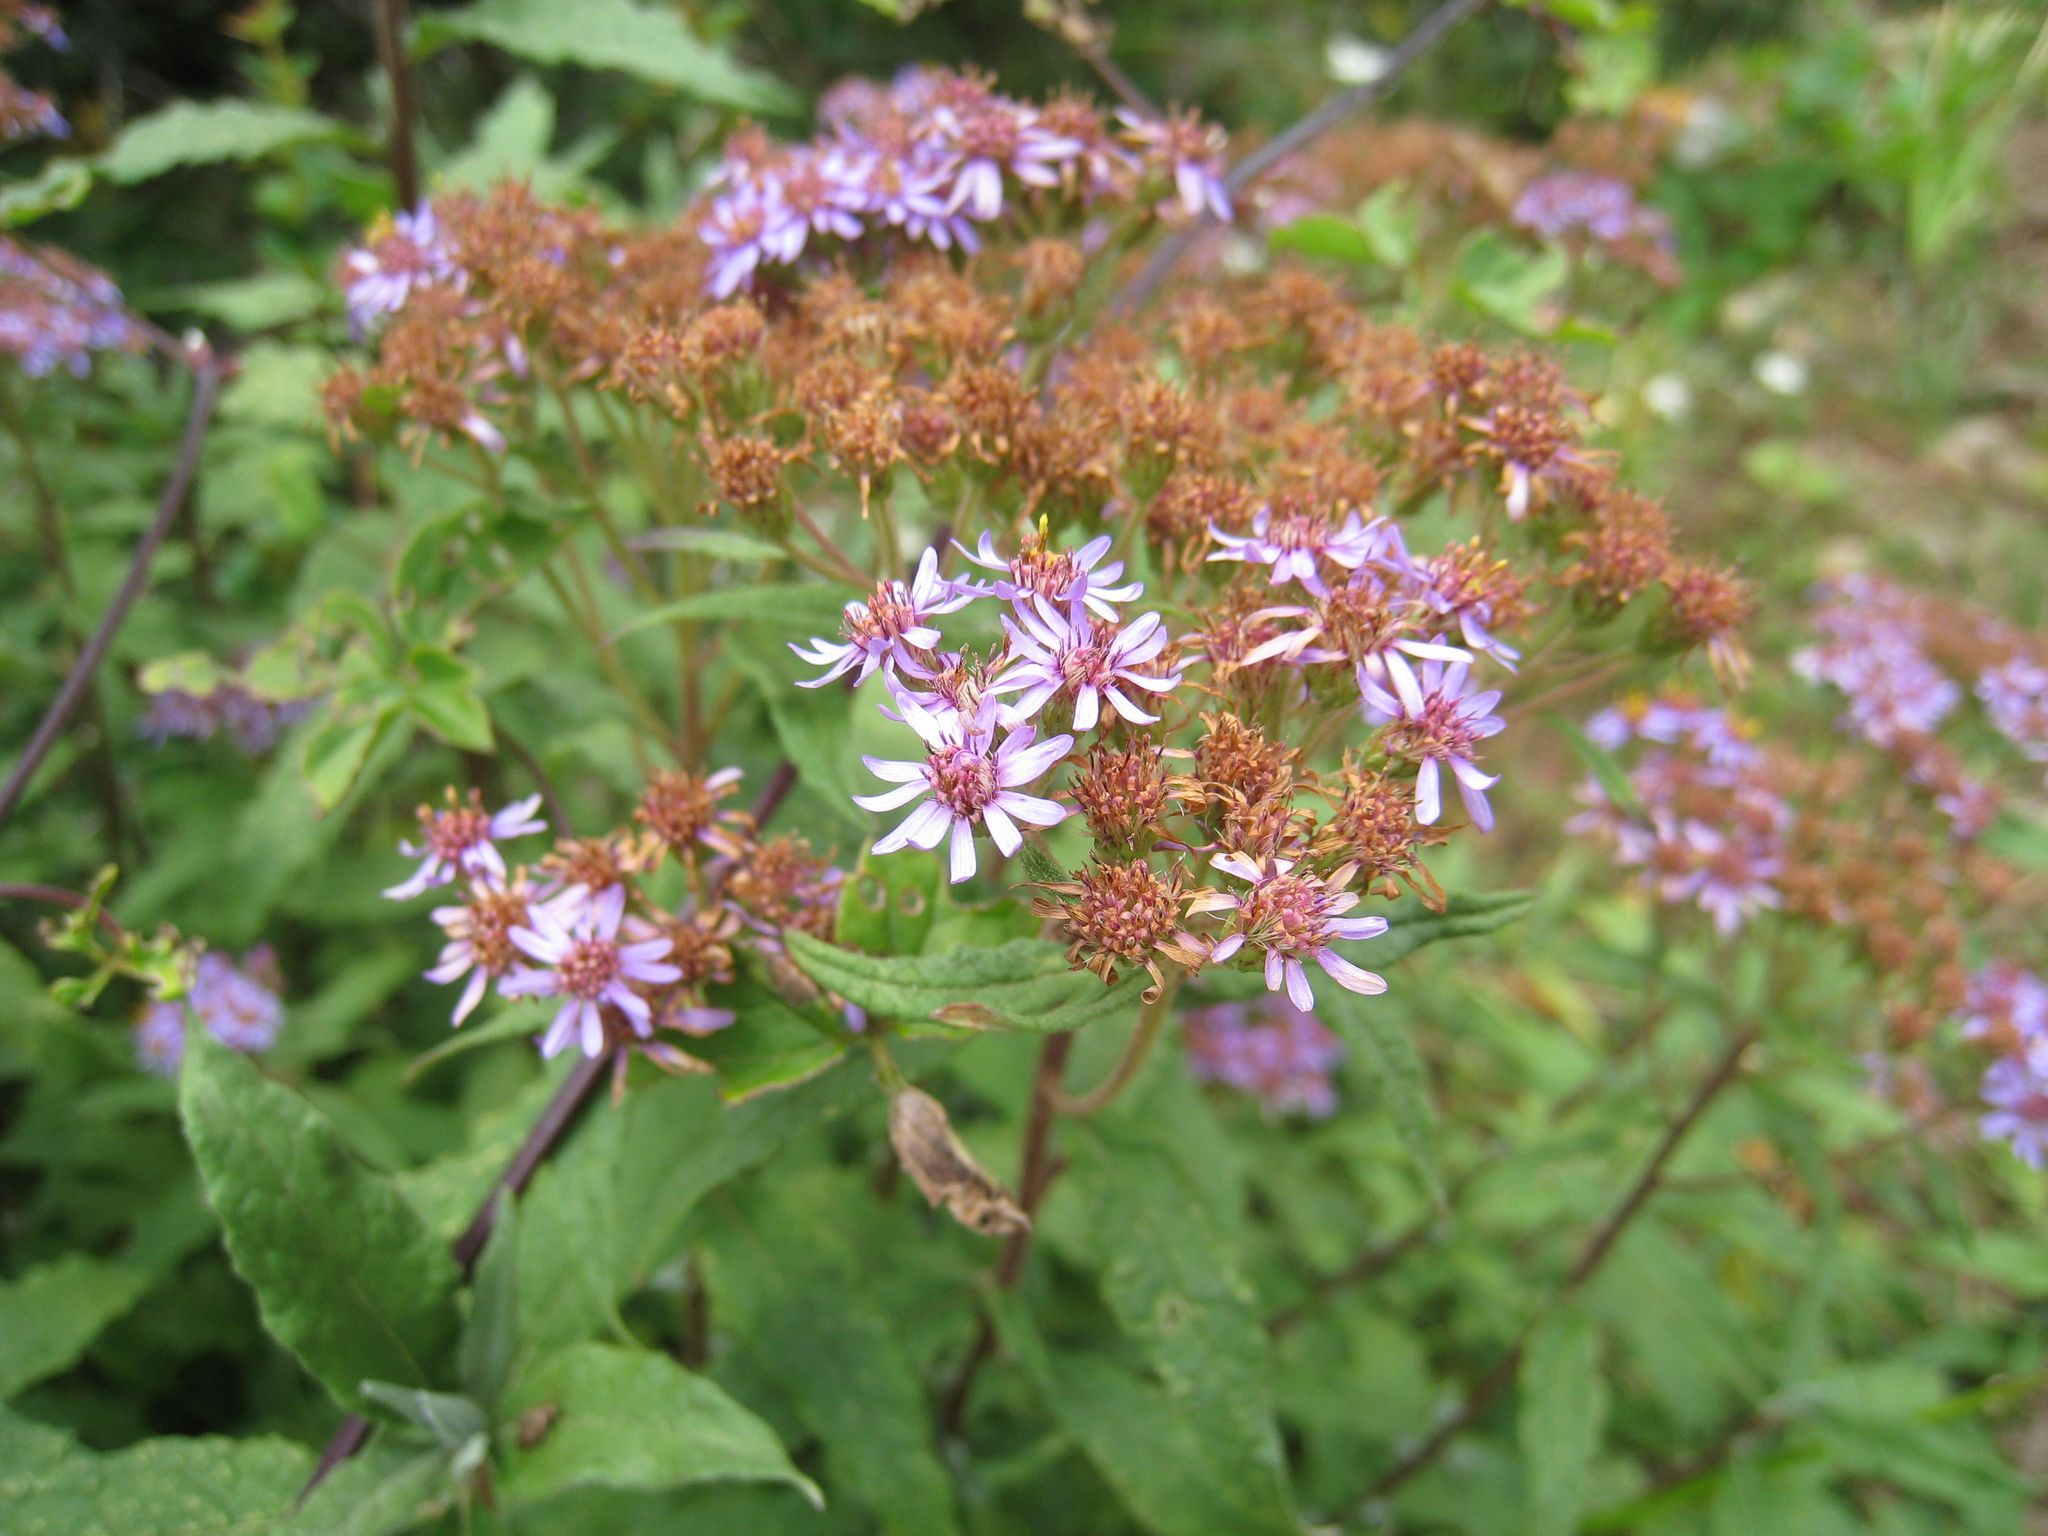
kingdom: Plantae
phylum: Tracheophyta
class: Magnoliopsida
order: Asterales
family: Asteraceae
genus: Aster
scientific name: Aster albescens
